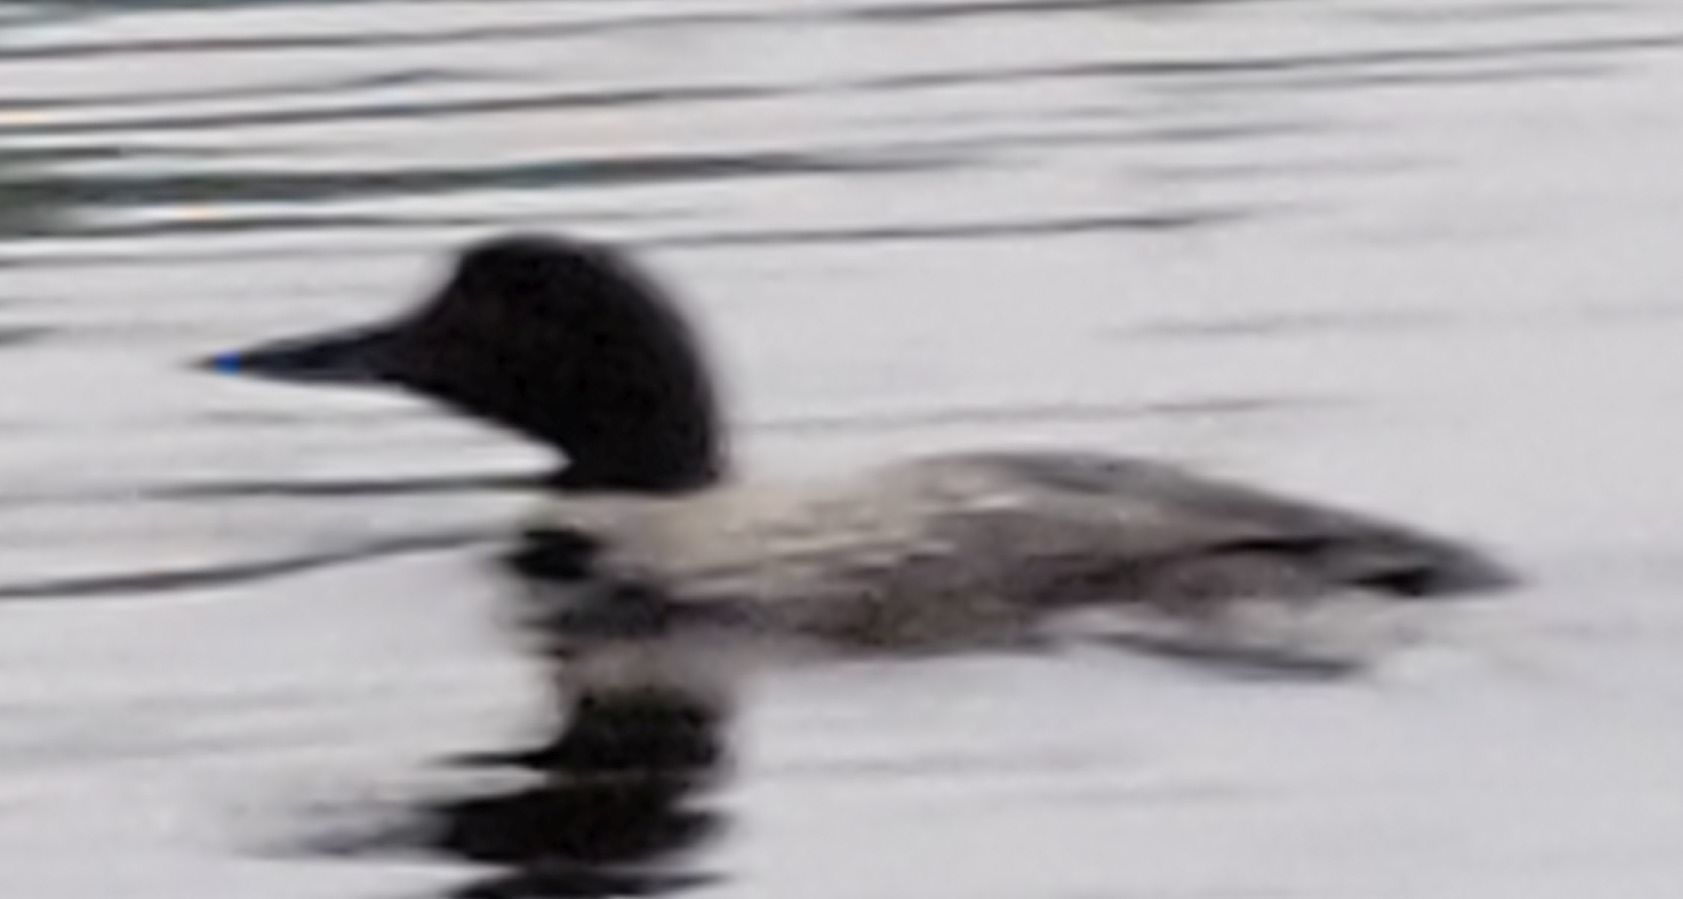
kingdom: Animalia
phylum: Chordata
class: Aves
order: Gaviiformes
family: Gaviidae
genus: Gavia
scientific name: Gavia immer
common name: Common loon
